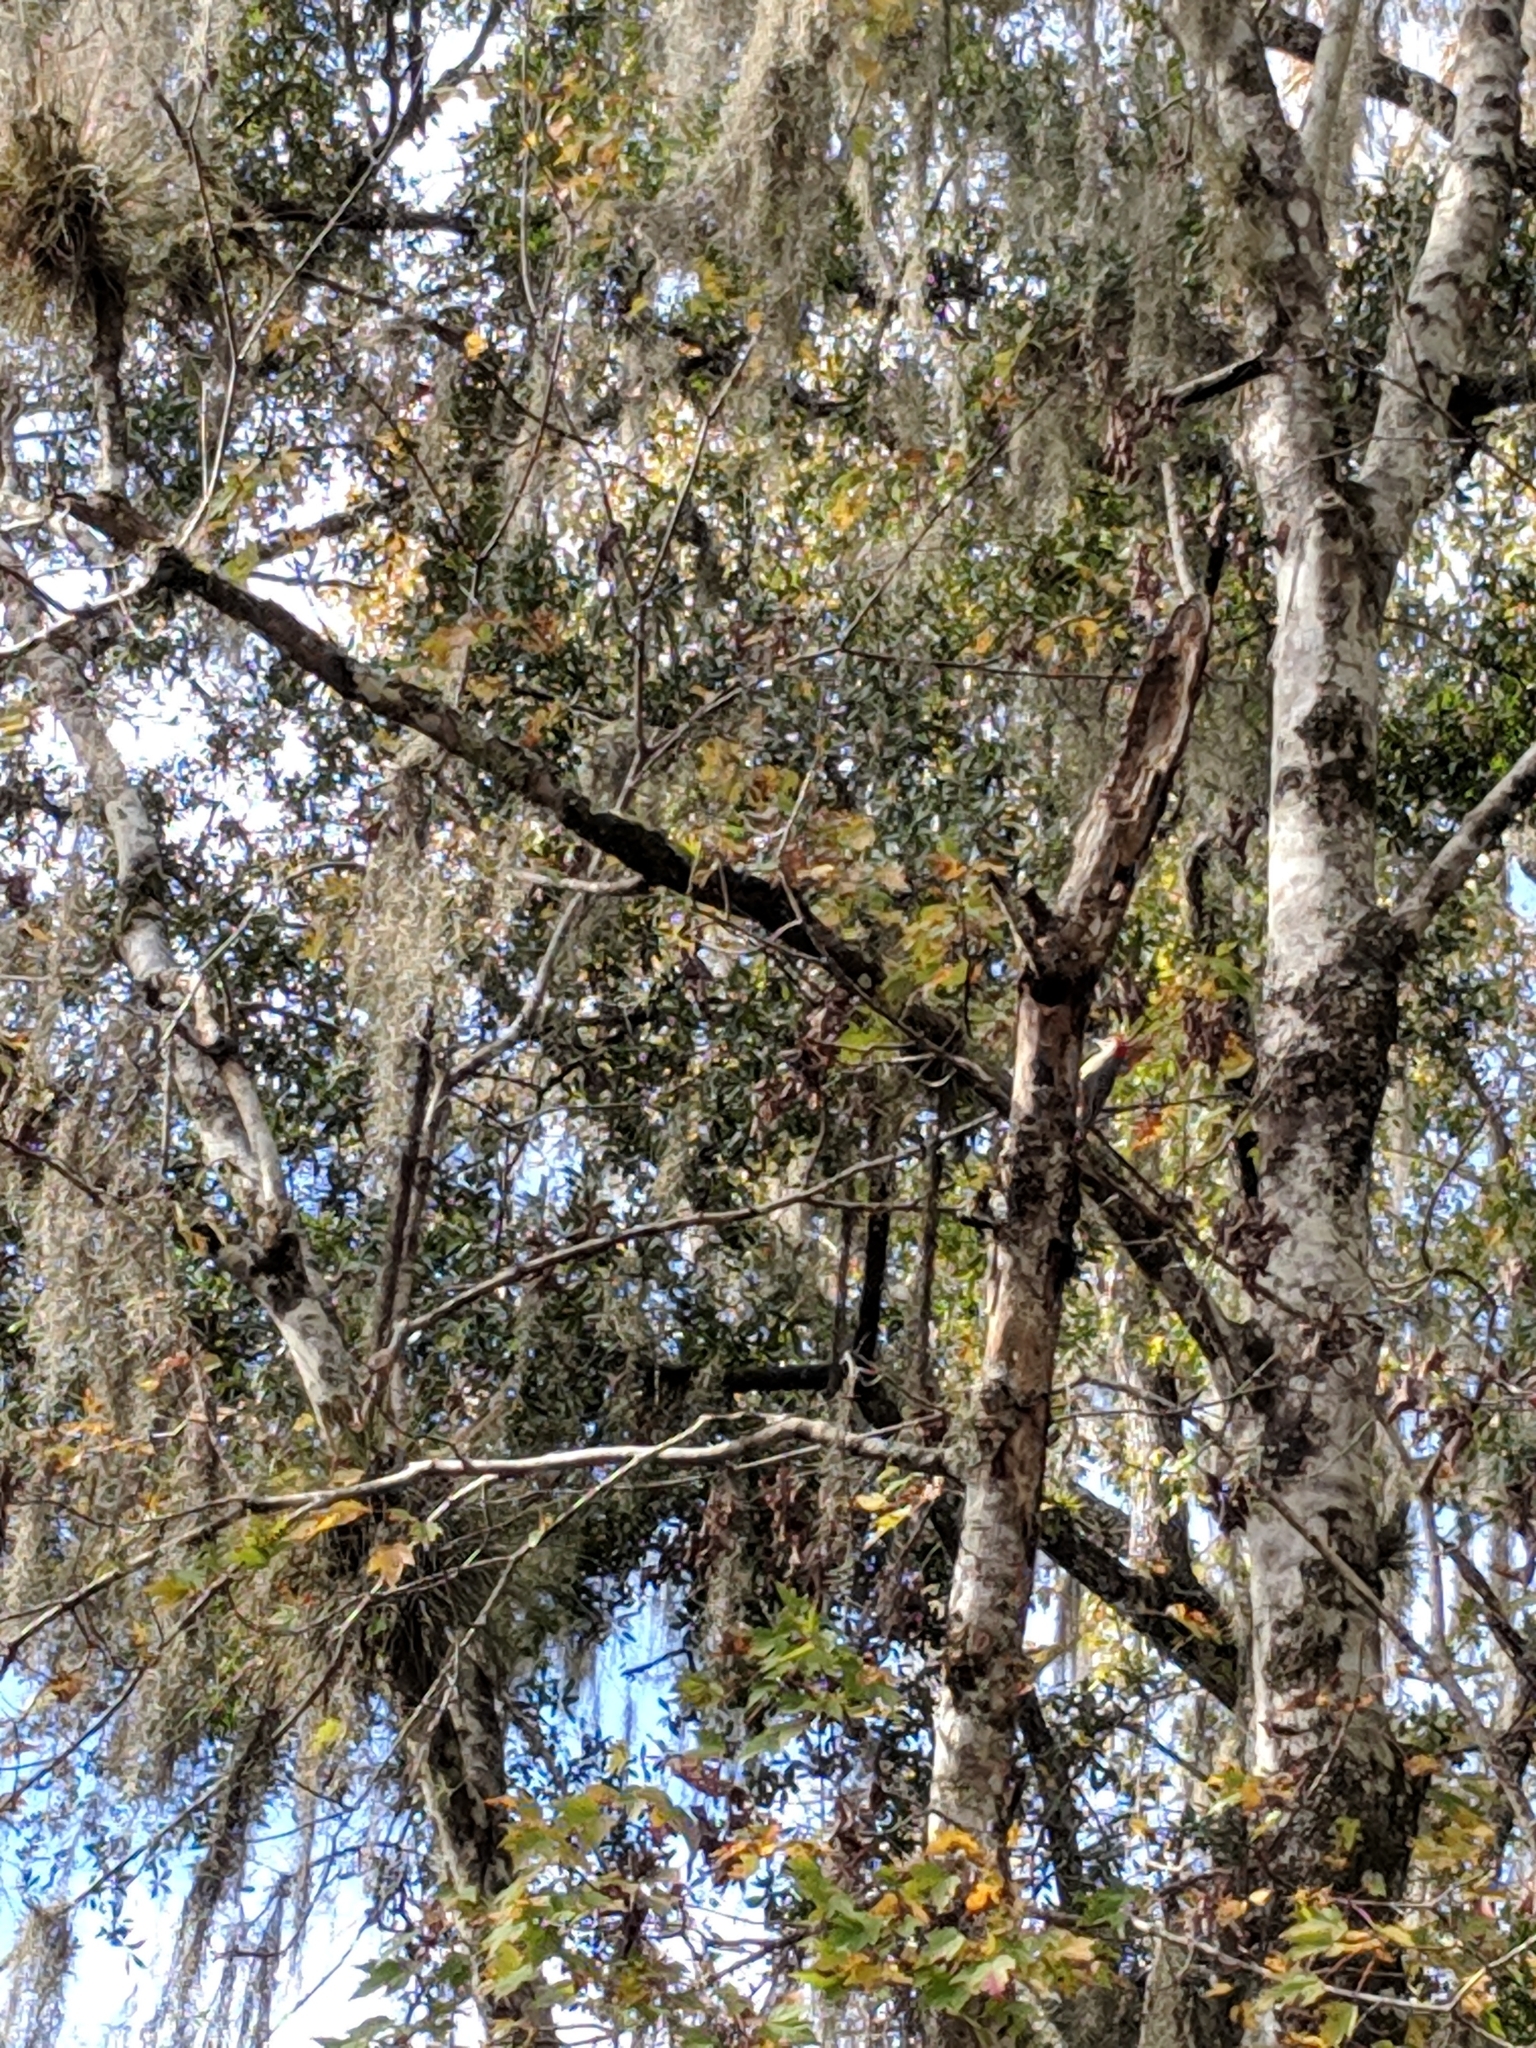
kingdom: Animalia
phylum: Chordata
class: Aves
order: Piciformes
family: Picidae
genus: Melanerpes
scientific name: Melanerpes carolinus
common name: Red-bellied woodpecker
